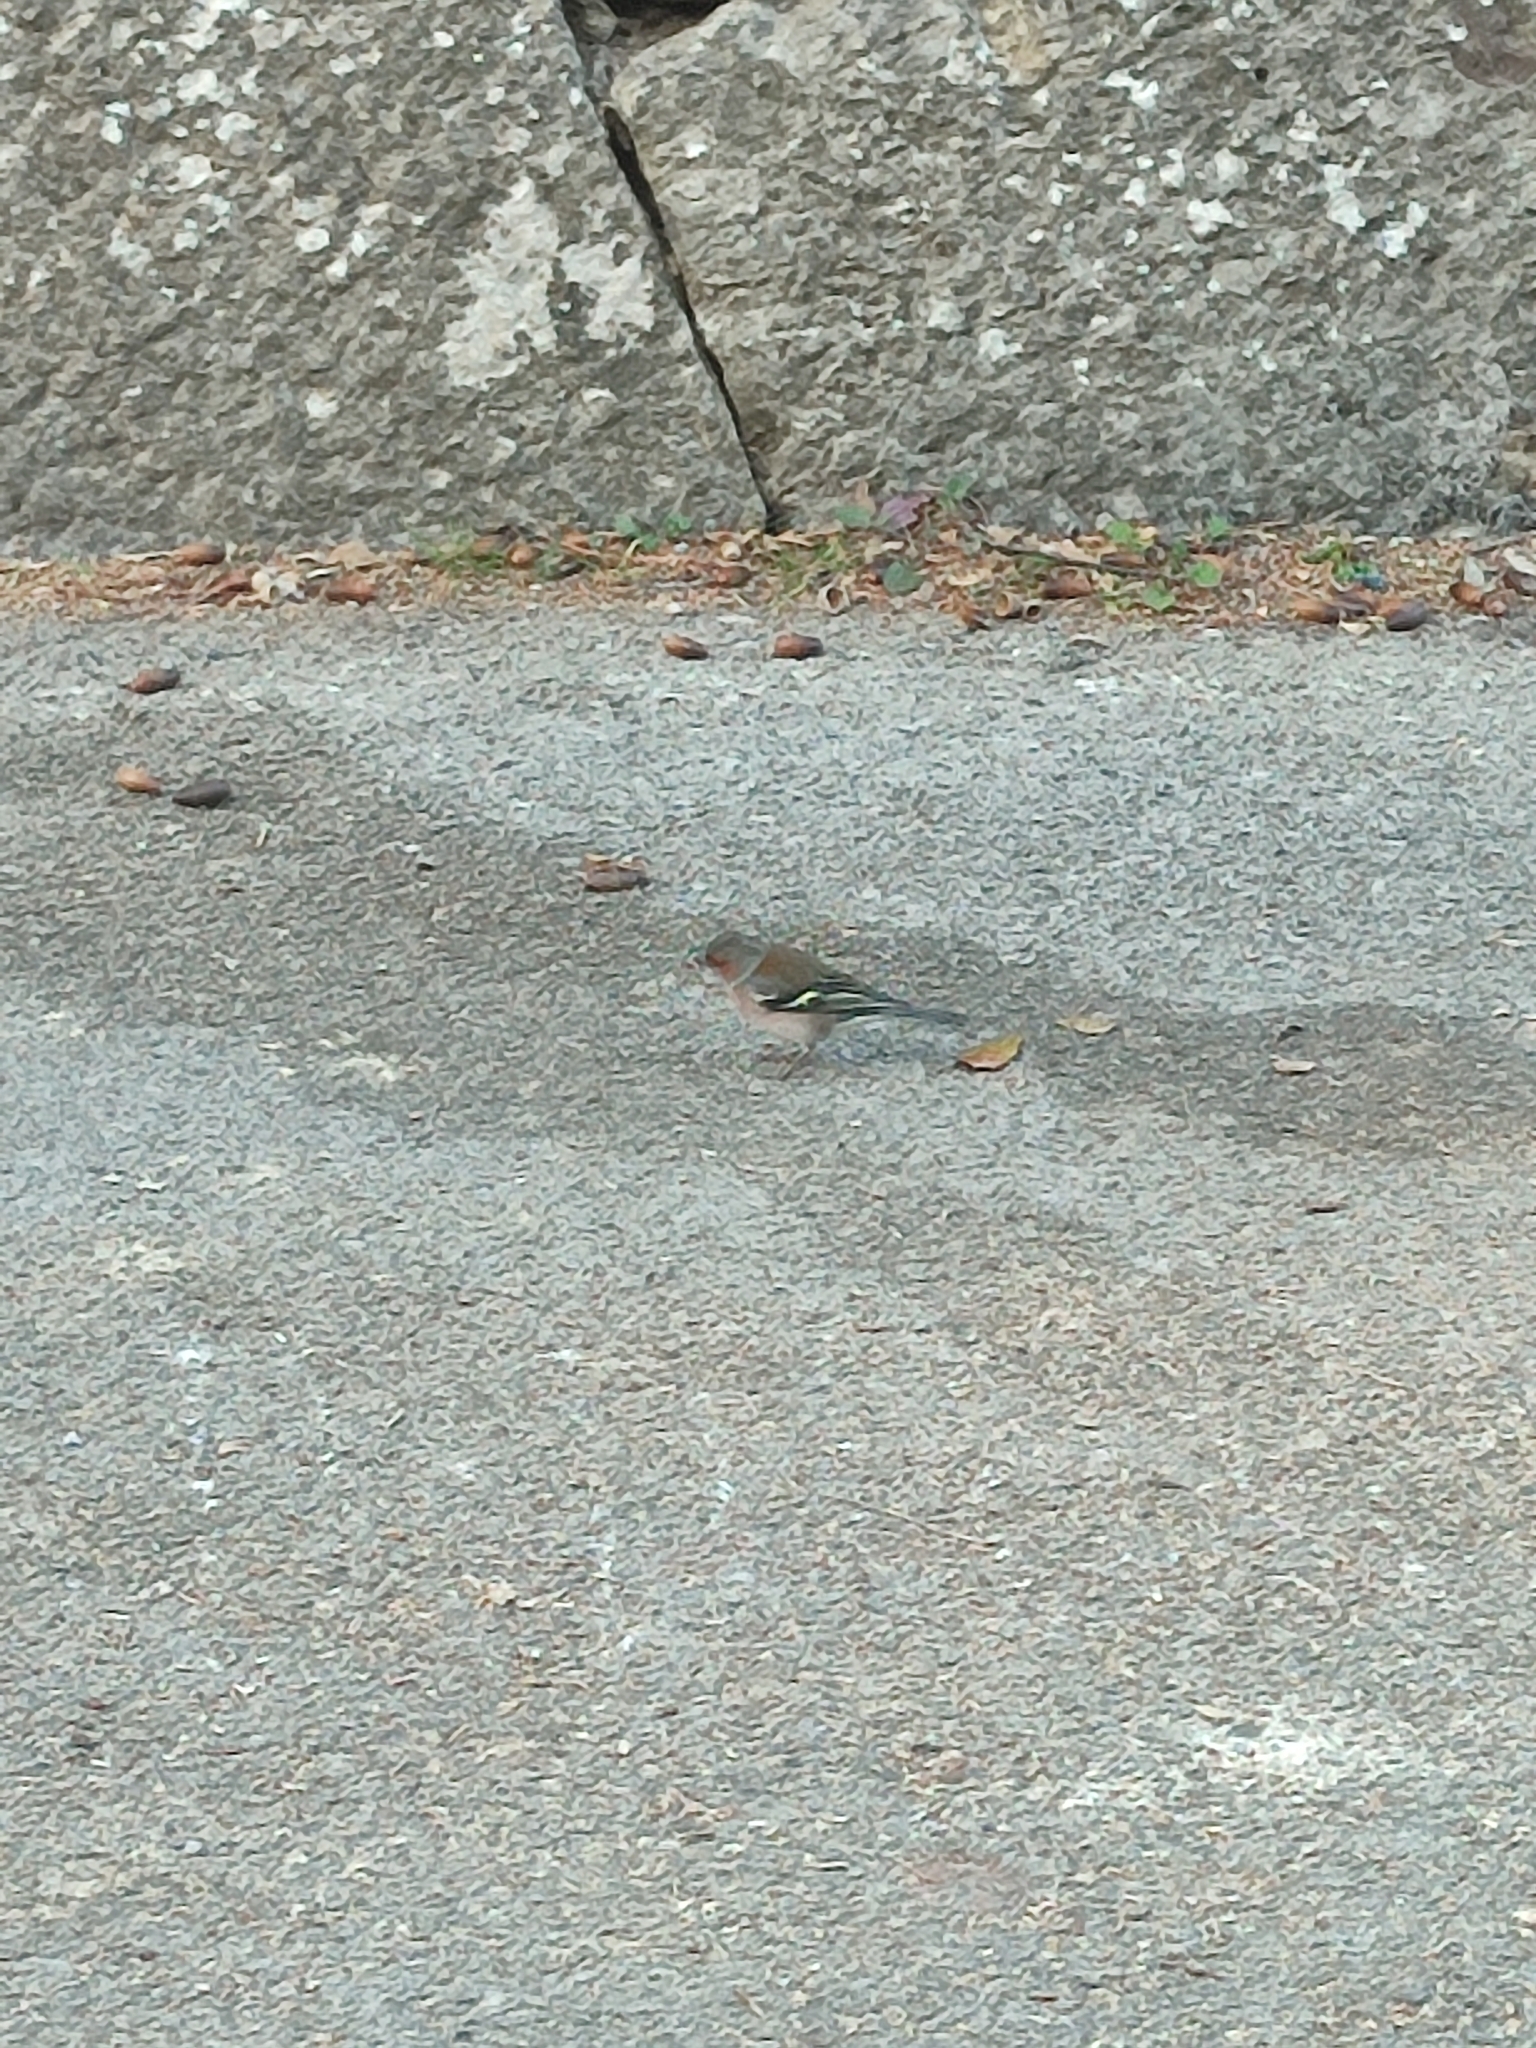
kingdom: Animalia
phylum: Chordata
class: Aves
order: Passeriformes
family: Fringillidae
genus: Fringilla
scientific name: Fringilla coelebs
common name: Common chaffinch
